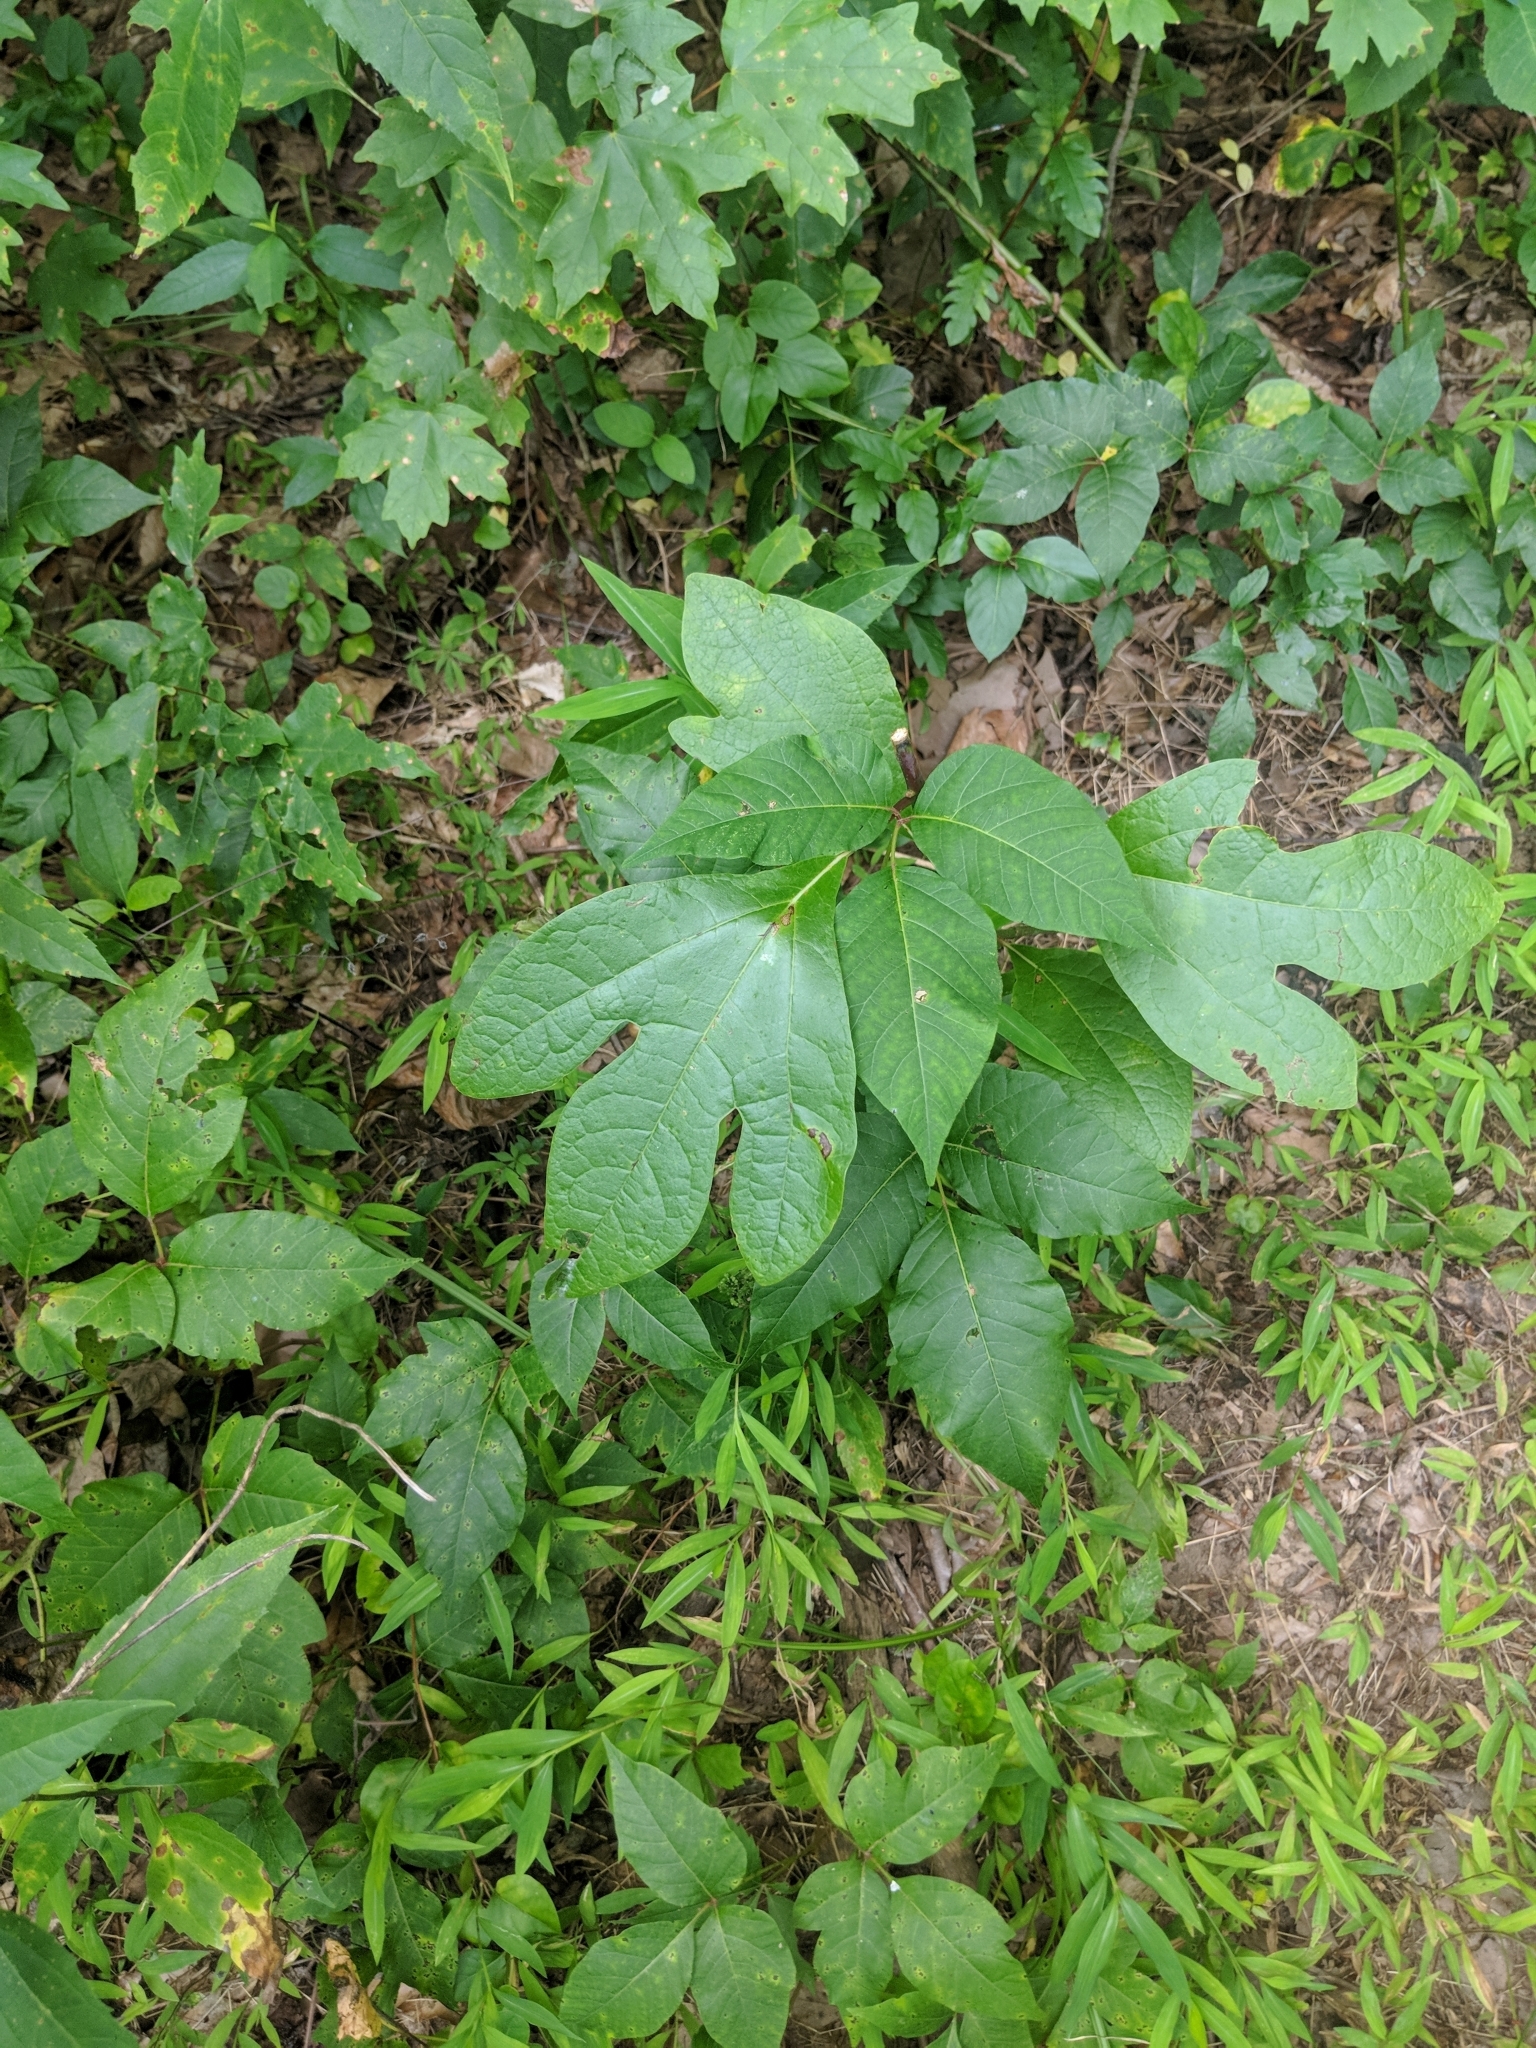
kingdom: Plantae
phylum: Tracheophyta
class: Magnoliopsida
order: Laurales
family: Lauraceae
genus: Sassafras
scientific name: Sassafras albidum
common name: Sassafras
